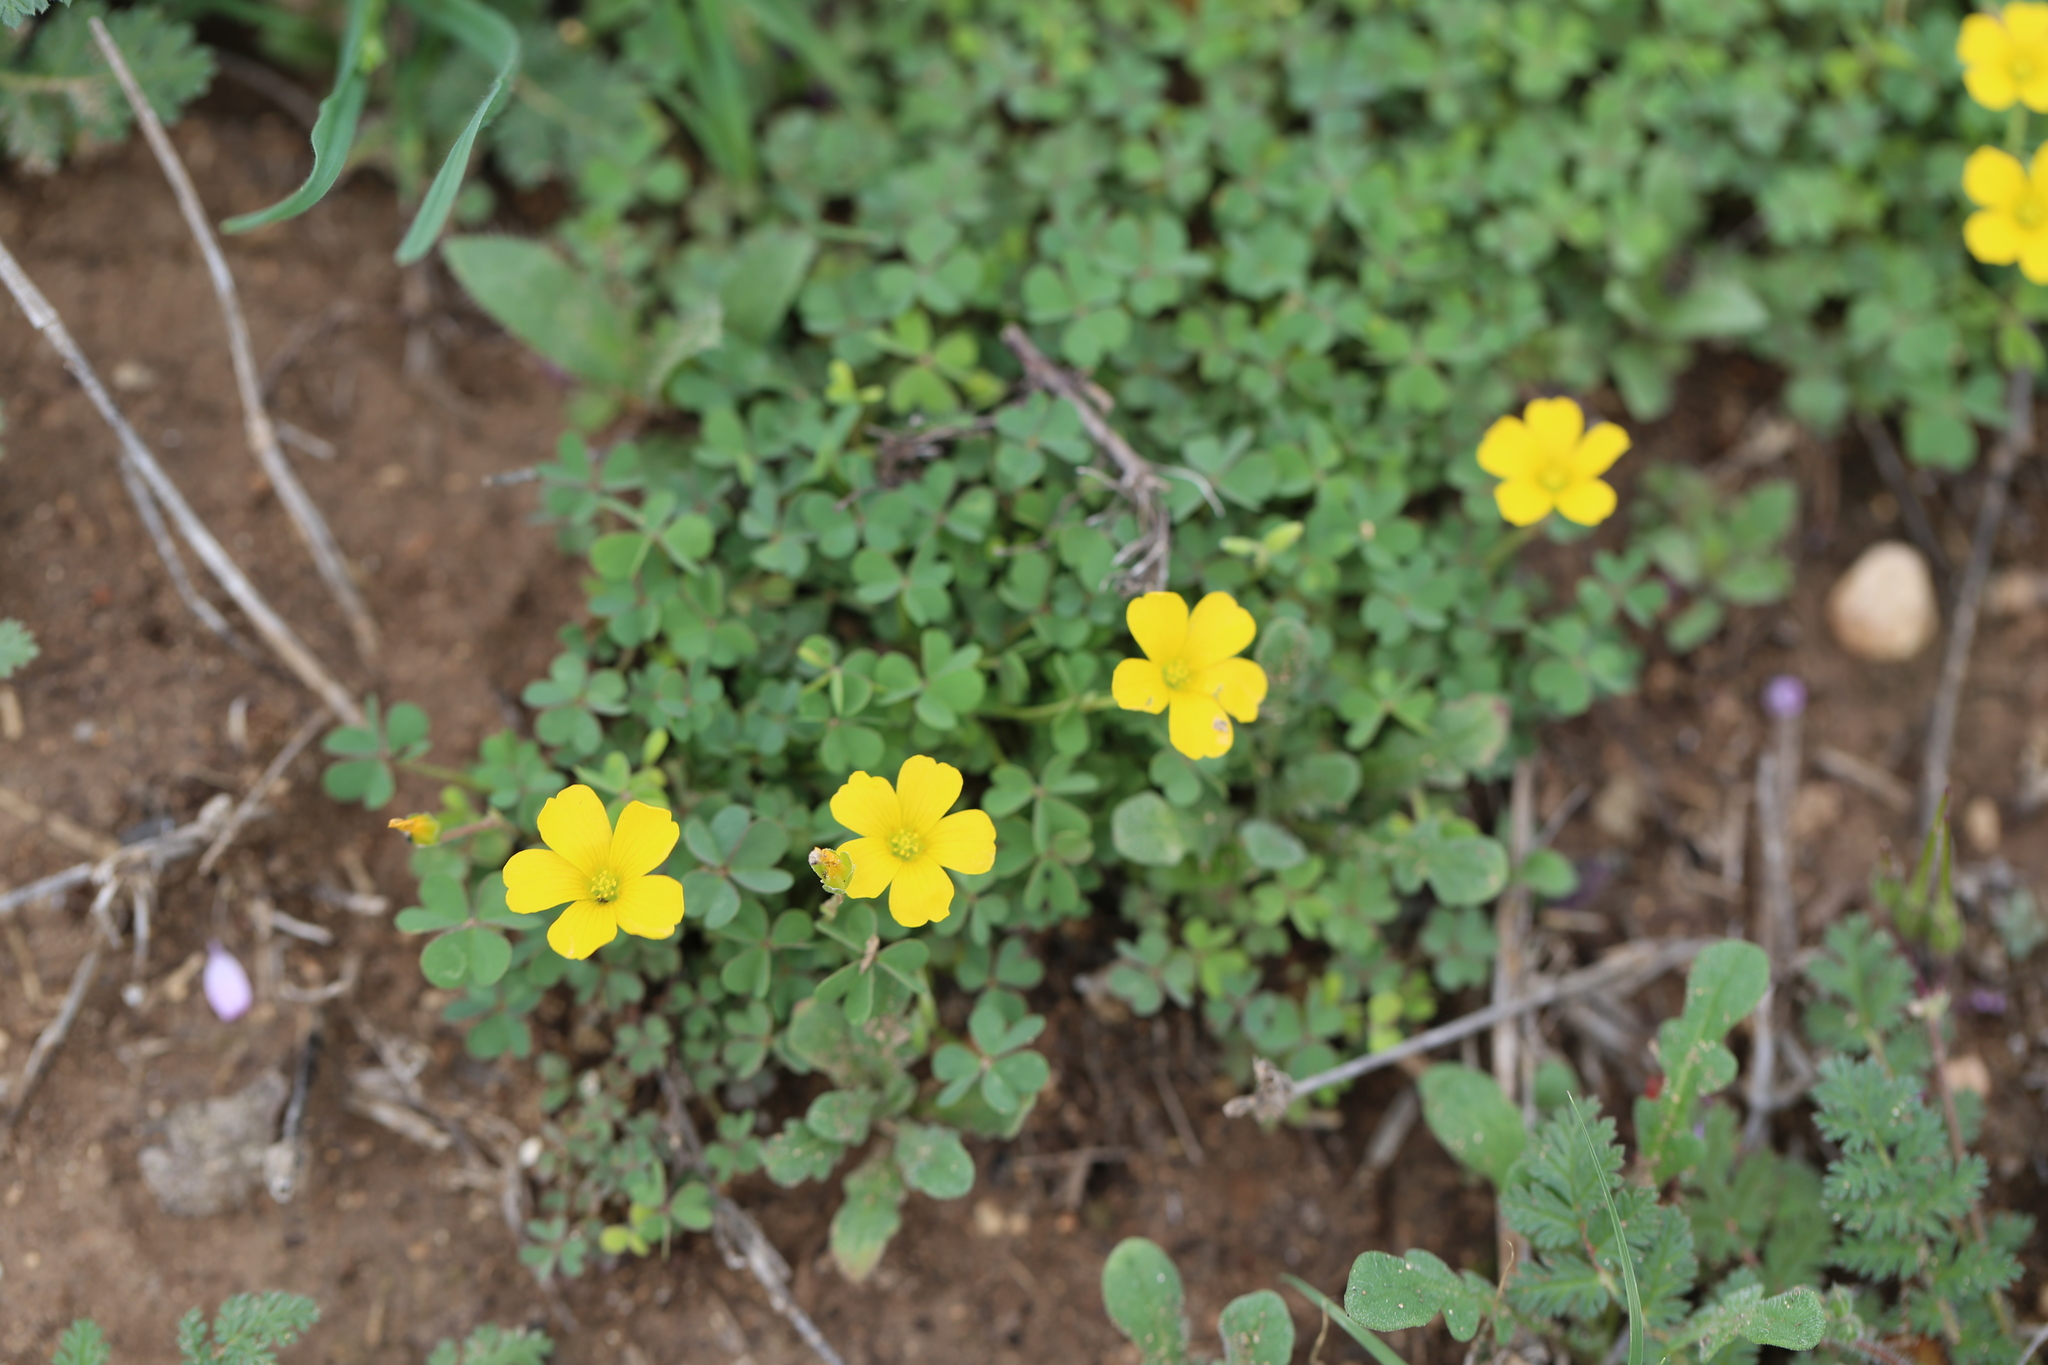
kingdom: Plantae
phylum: Tracheophyta
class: Magnoliopsida
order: Oxalidales
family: Oxalidaceae
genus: Oxalis
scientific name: Oxalis dillenii
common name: Sussex yellow-sorrel
